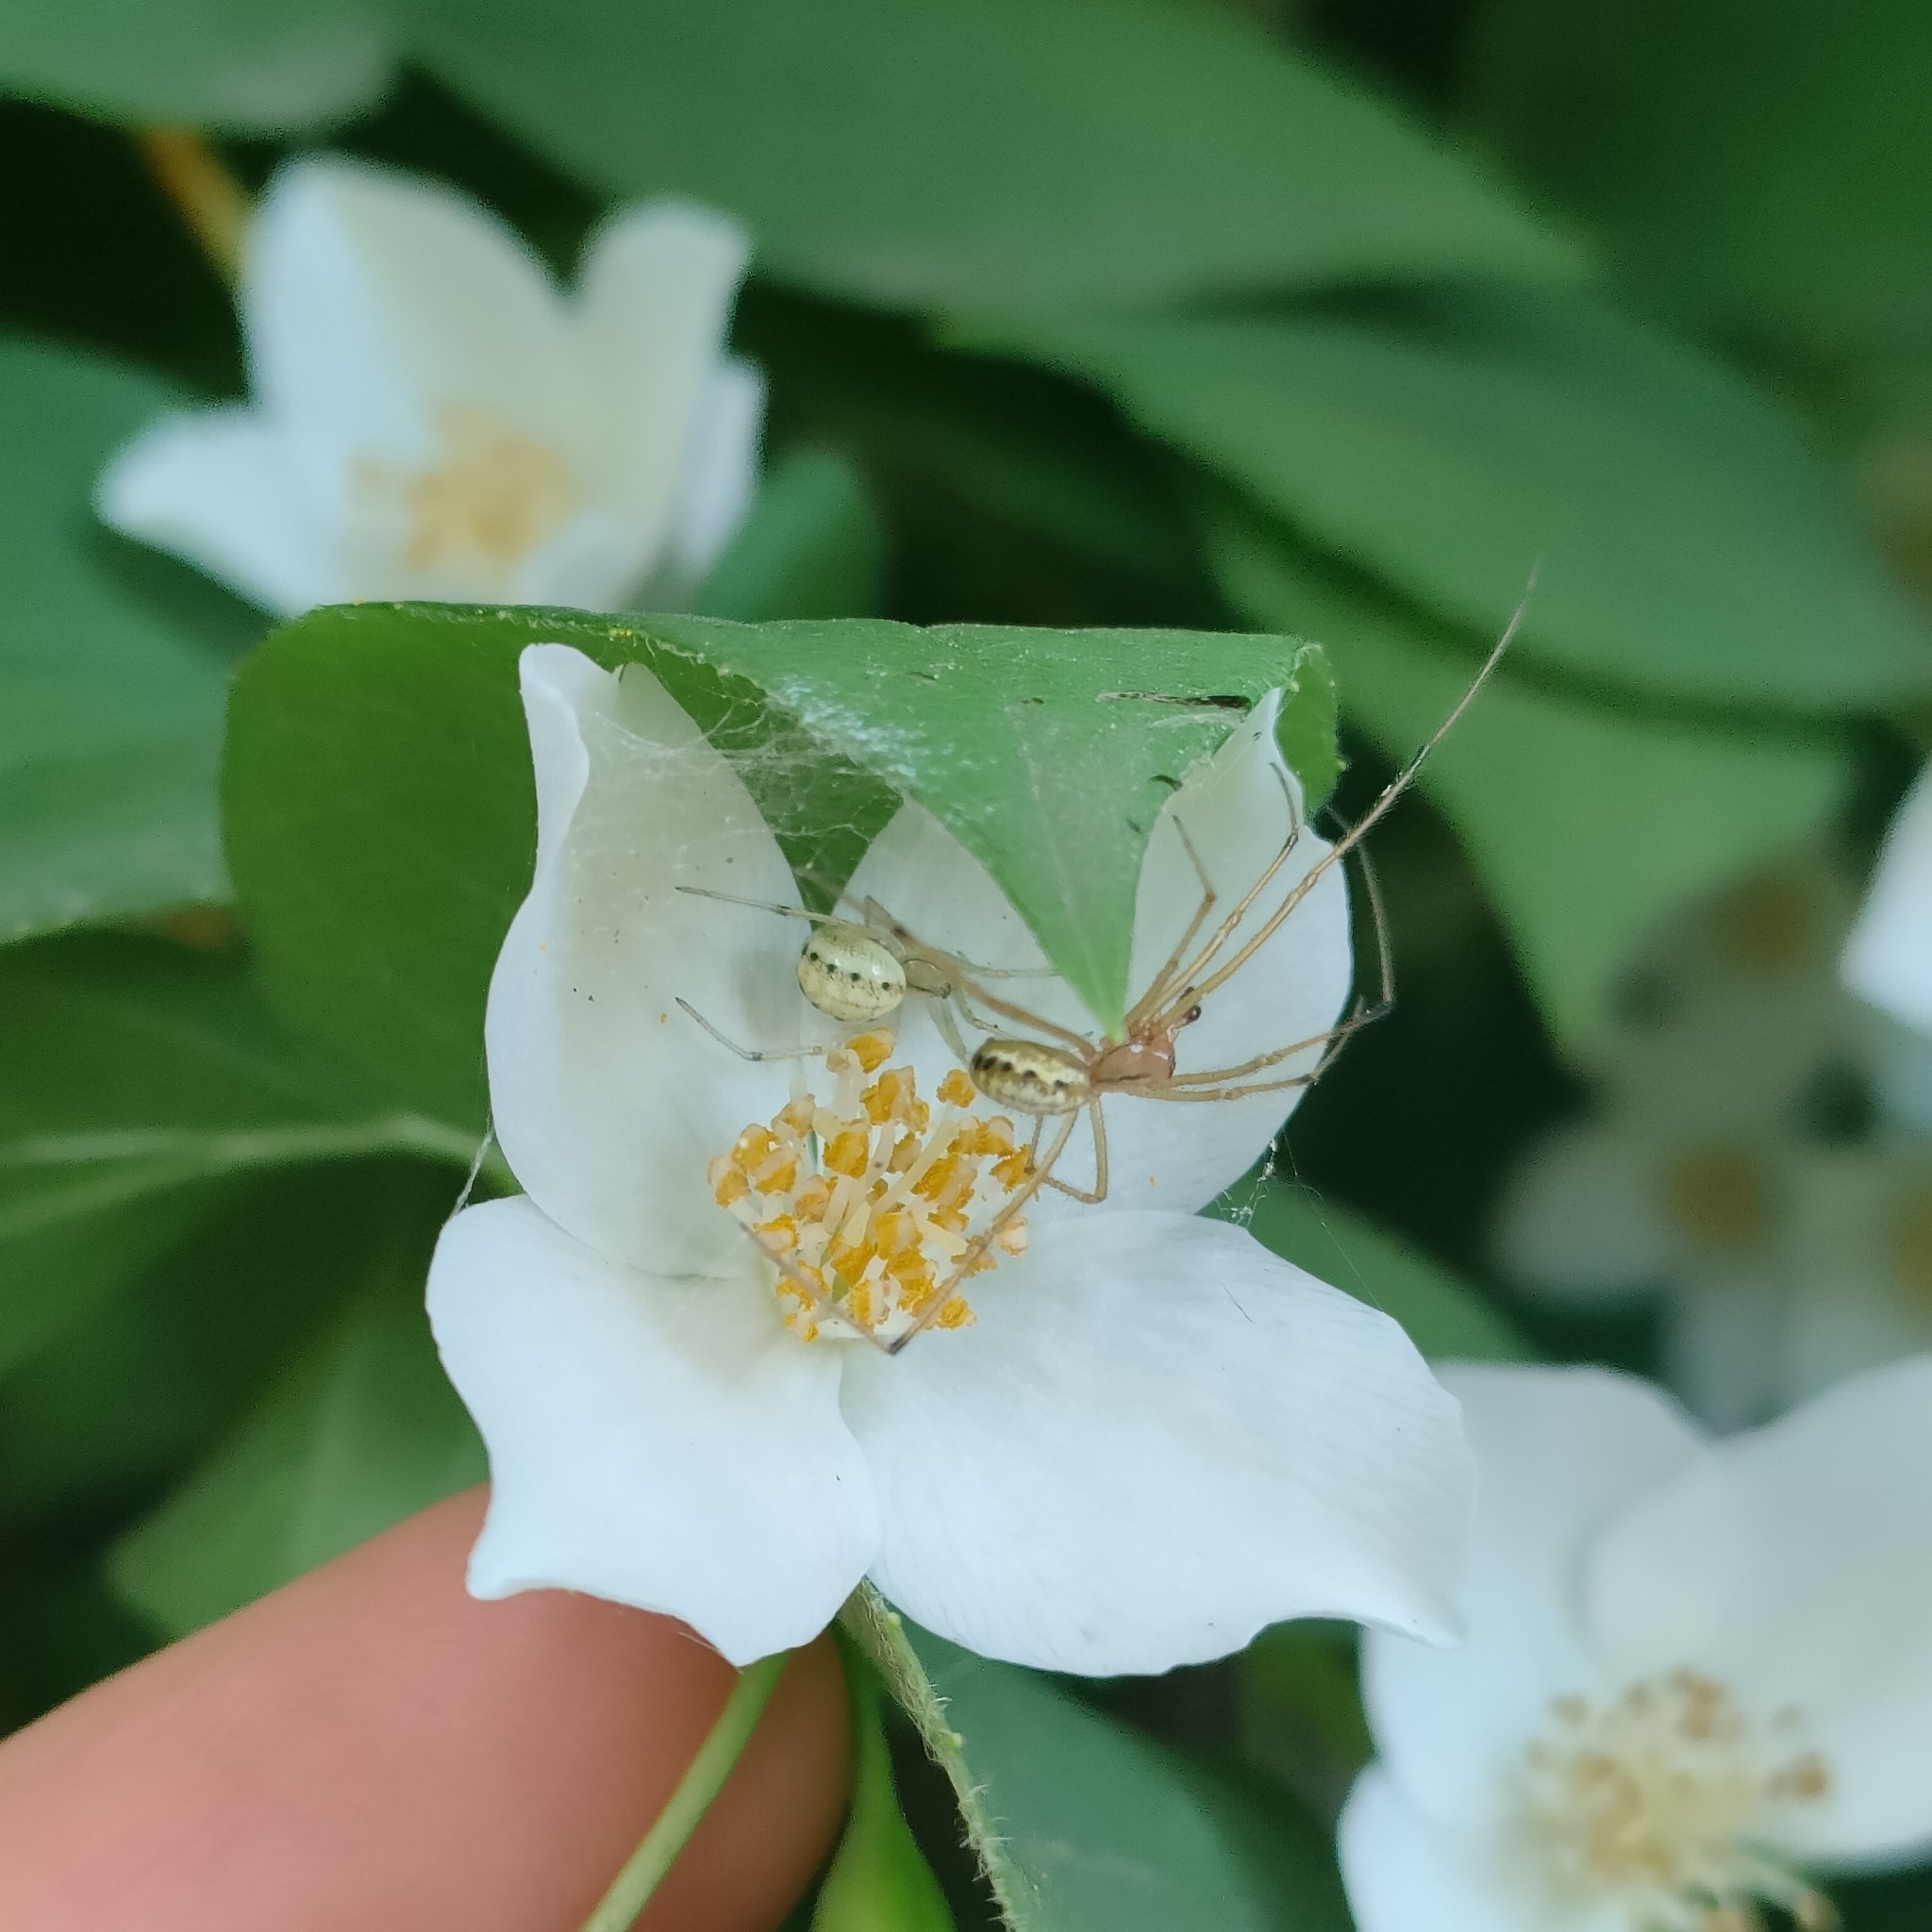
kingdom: Animalia
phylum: Arthropoda
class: Arachnida
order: Araneae
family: Theridiidae
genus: Enoplognatha
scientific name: Enoplognatha ovata
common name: Common candy-striped spider
